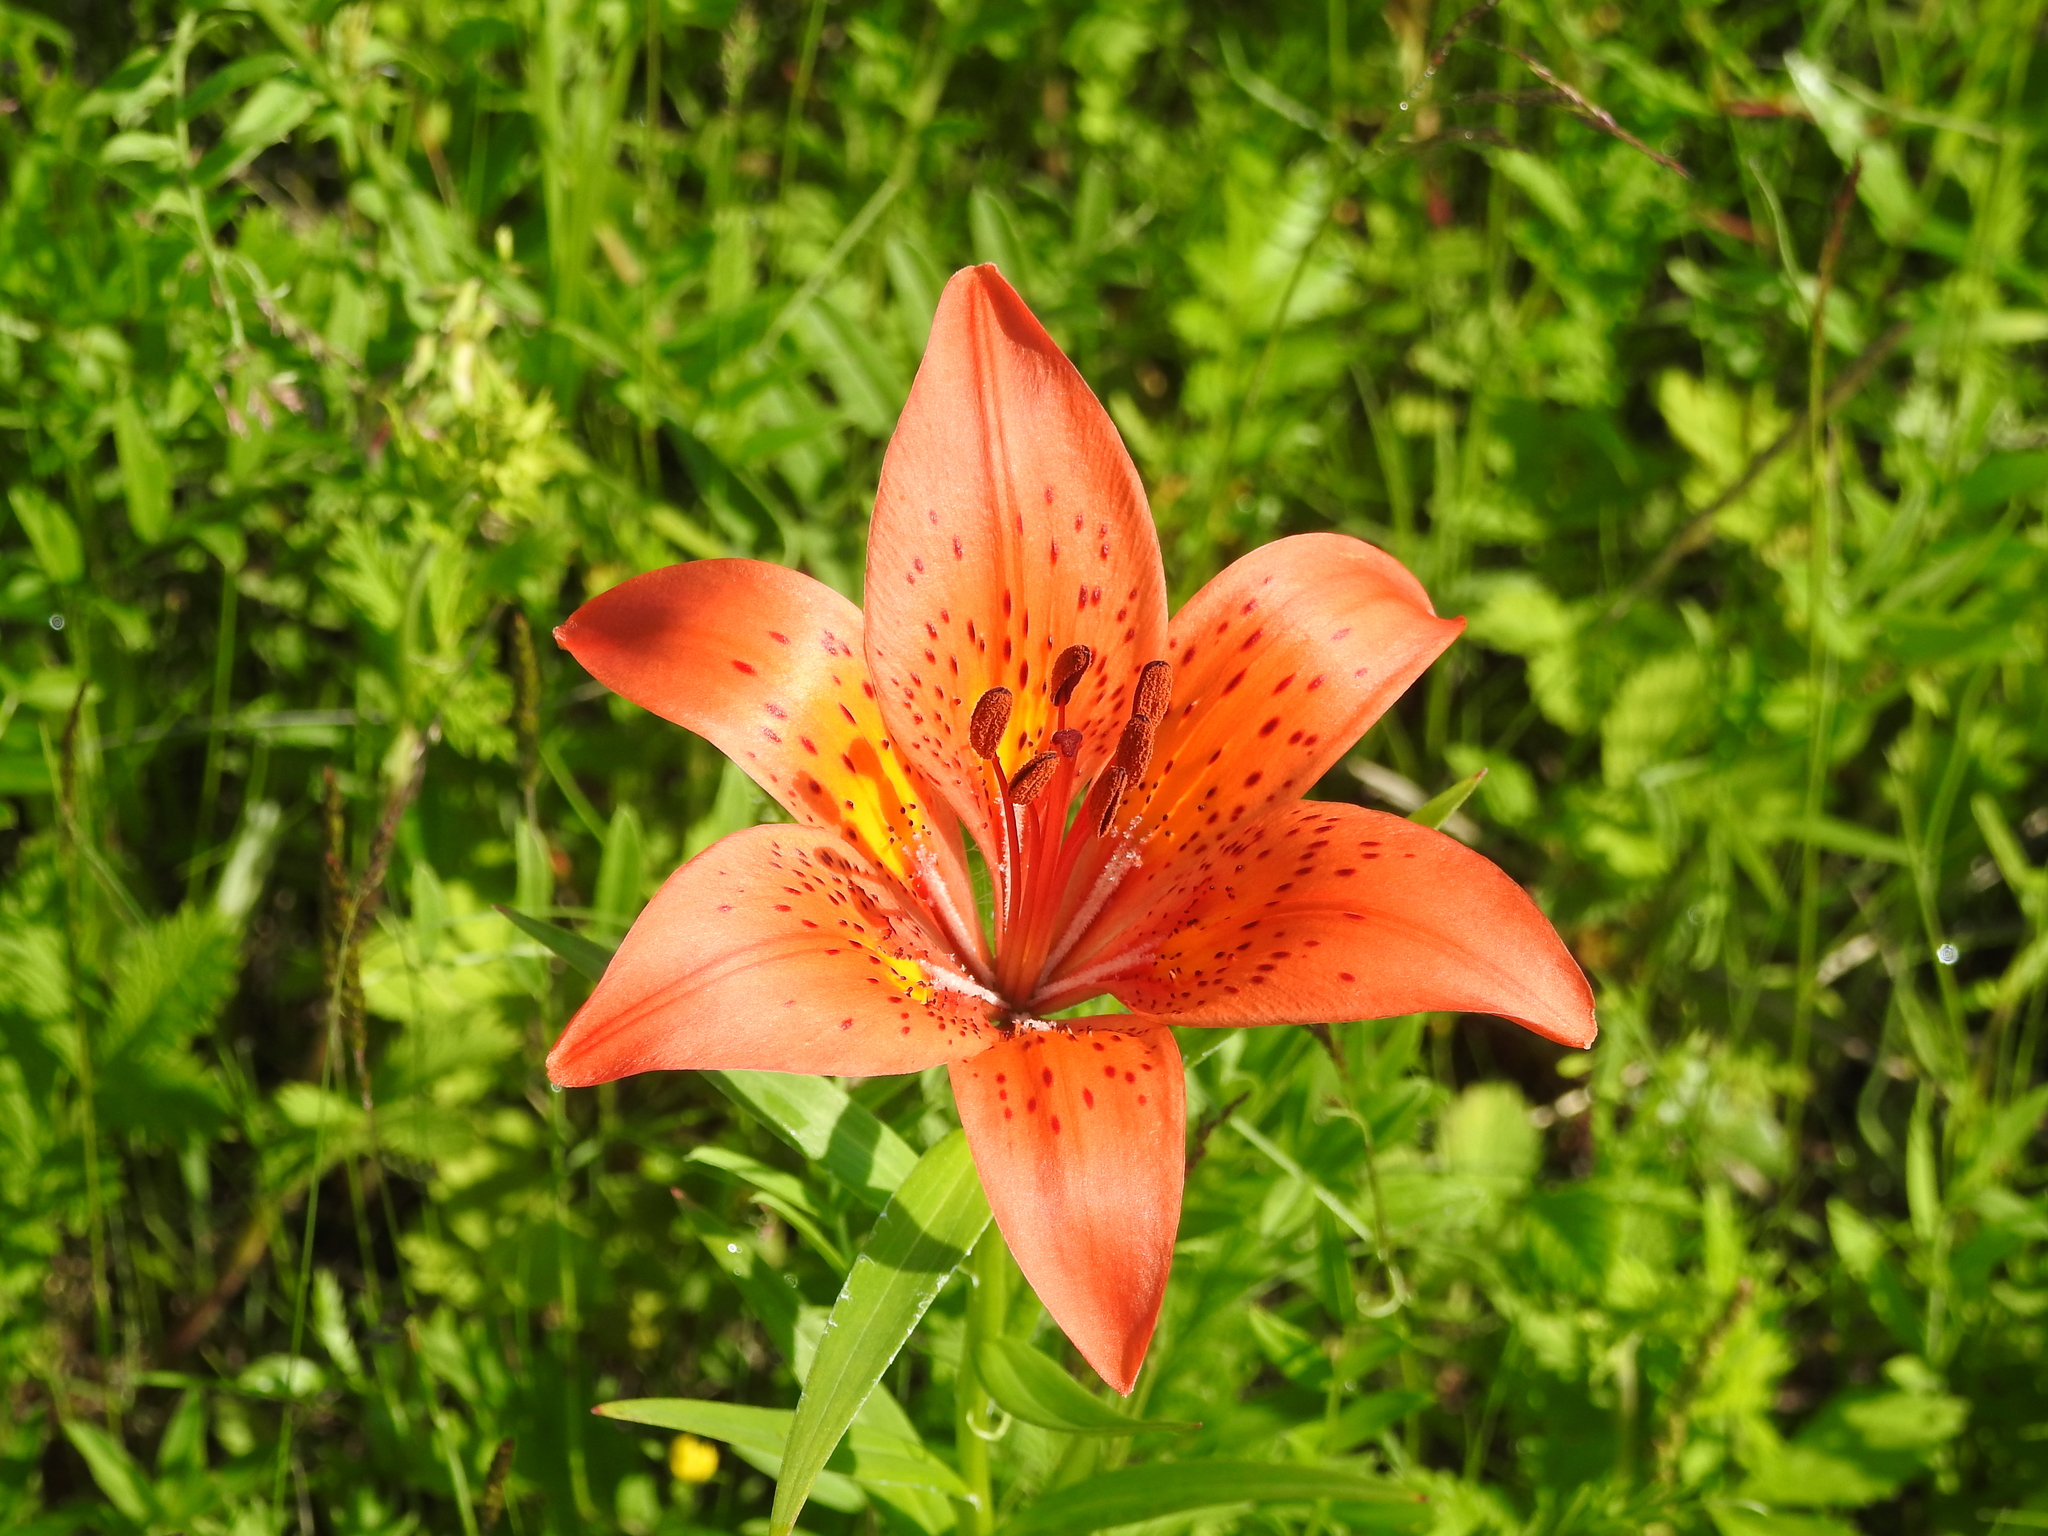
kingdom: Plantae
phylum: Tracheophyta
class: Liliopsida
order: Liliales
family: Liliaceae
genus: Lilium
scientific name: Lilium pensylvanicum
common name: Candlestick lily
